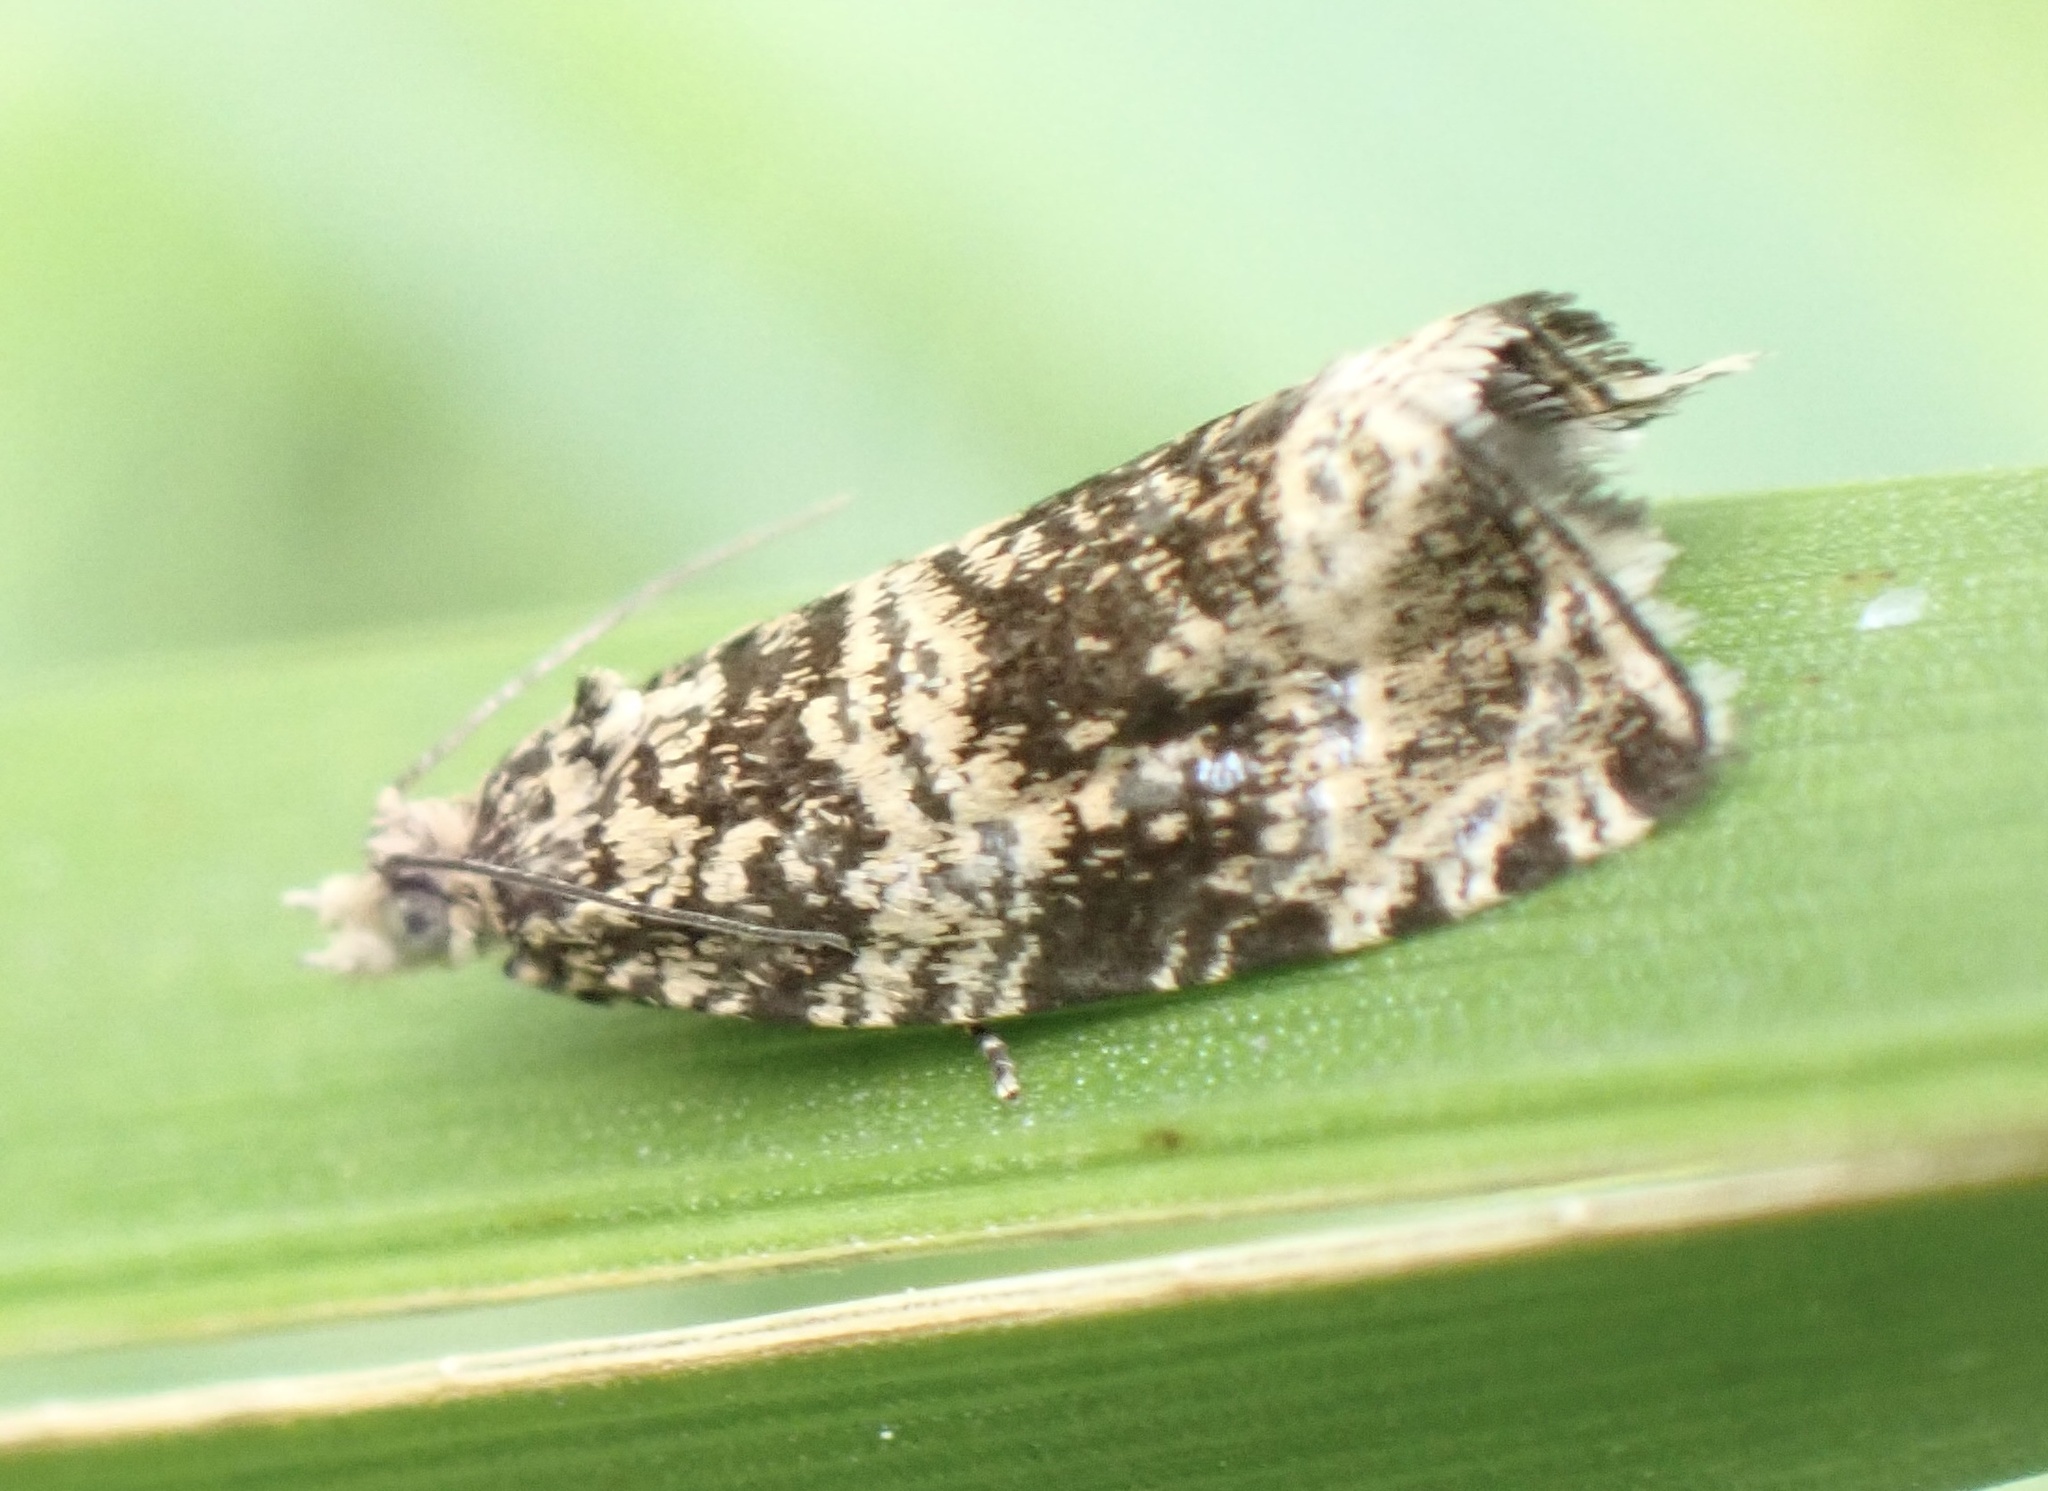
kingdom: Animalia
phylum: Arthropoda
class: Insecta
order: Lepidoptera
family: Tortricidae
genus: Syricoris
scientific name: Syricoris lacunana
